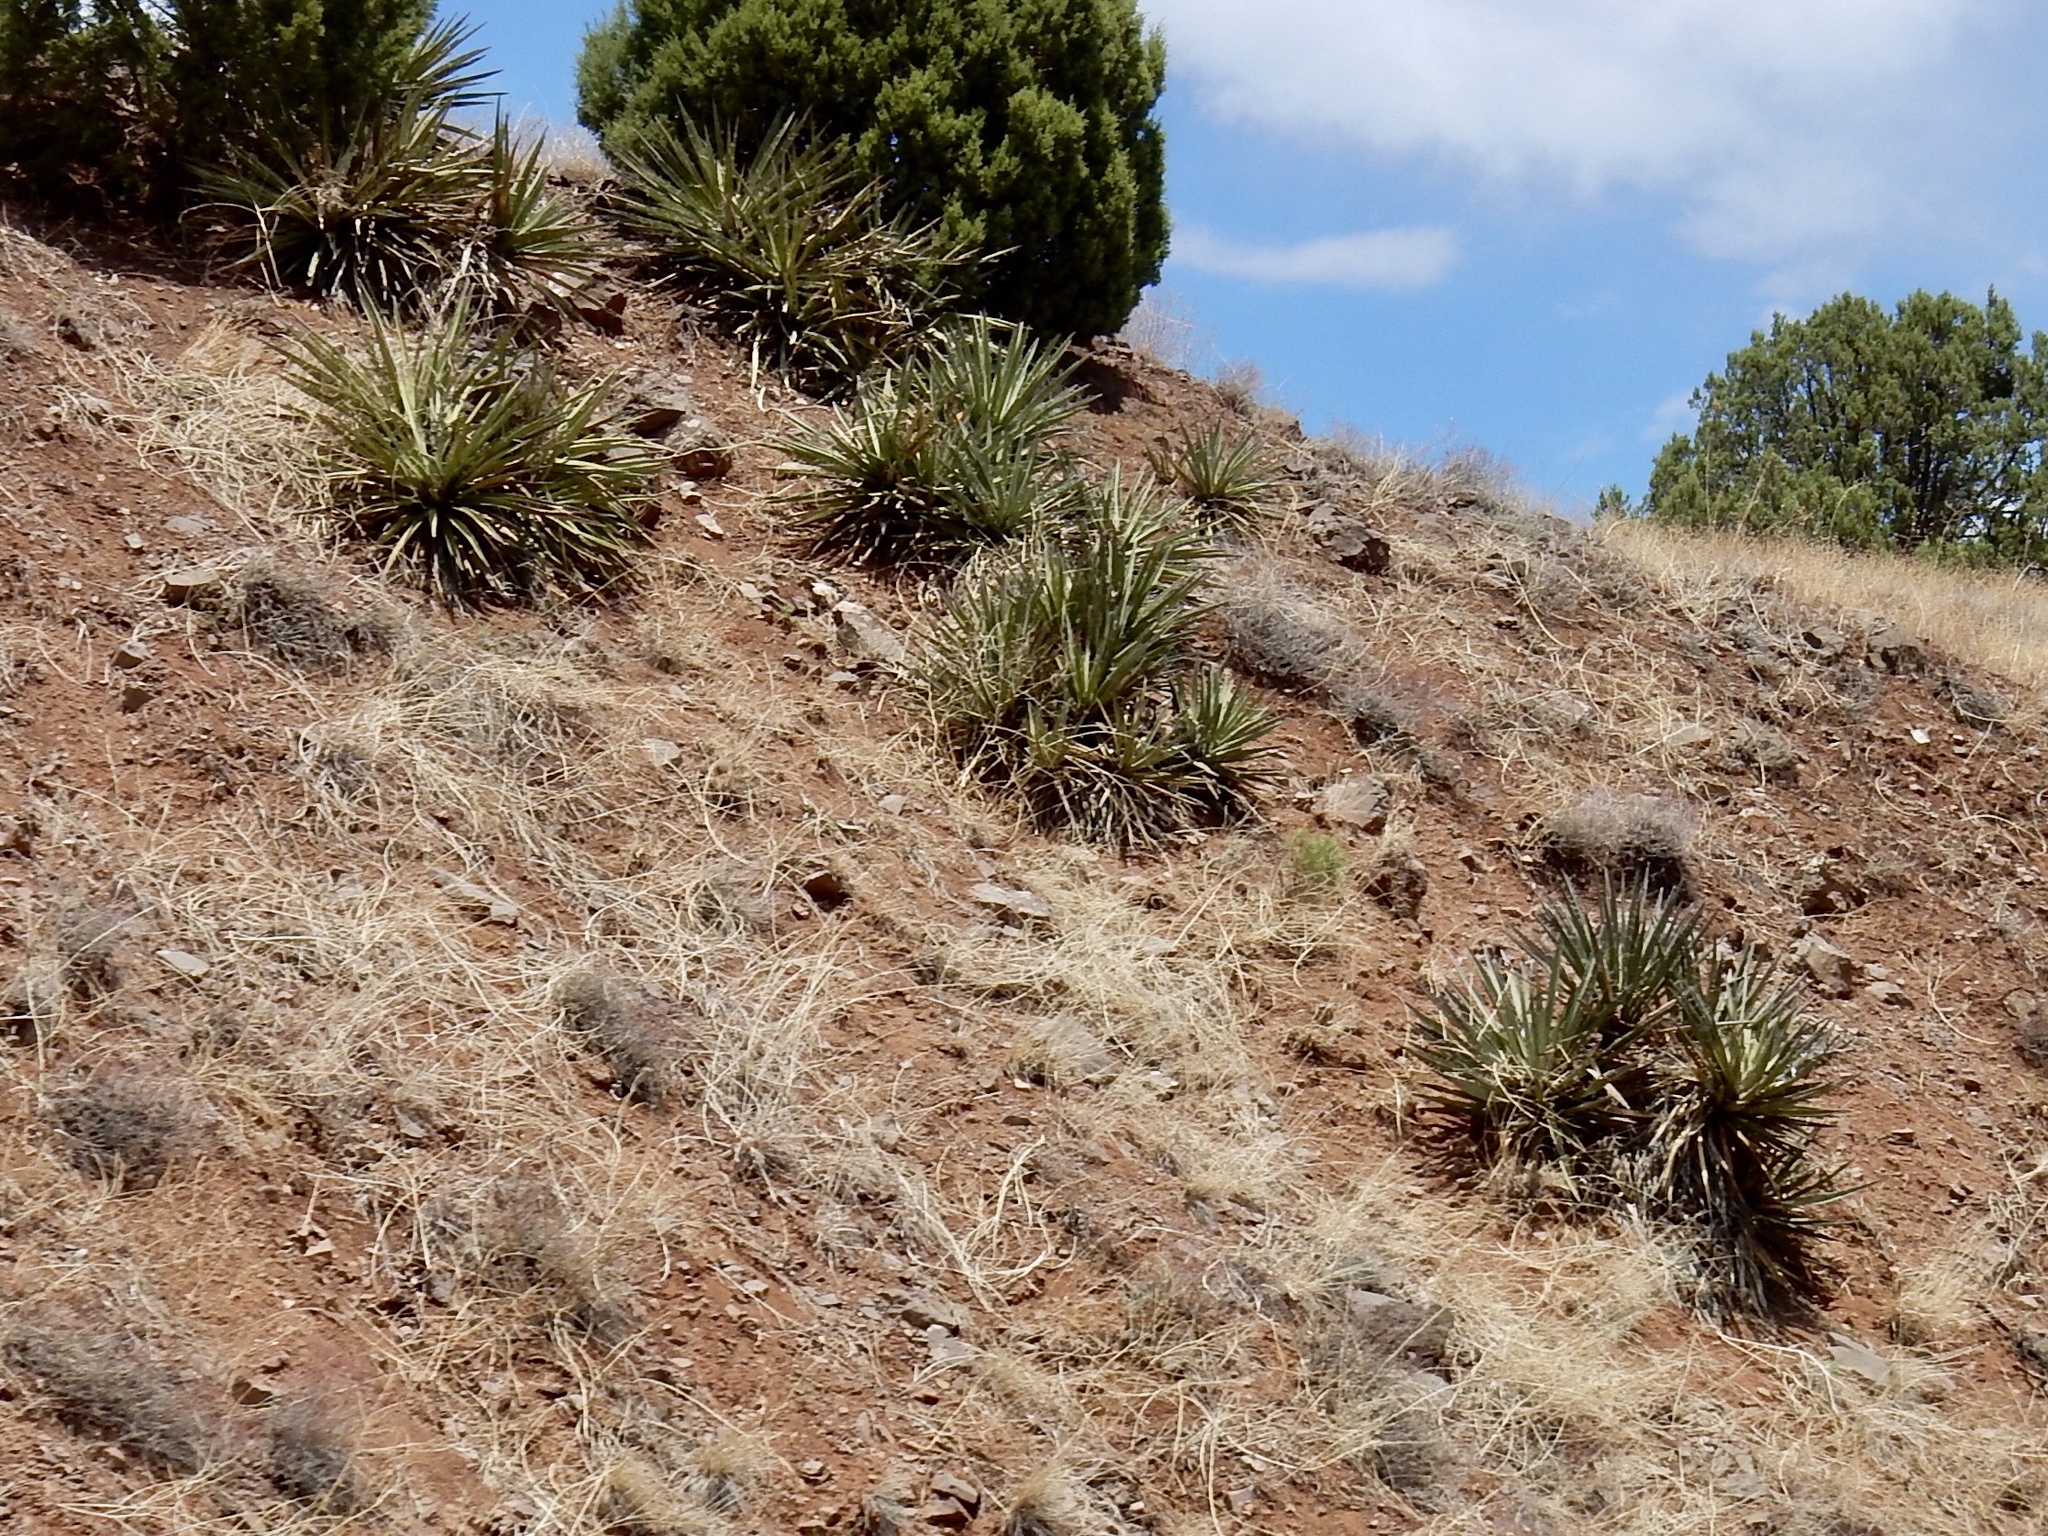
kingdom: Plantae
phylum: Tracheophyta
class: Liliopsida
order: Asparagales
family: Asparagaceae
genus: Yucca
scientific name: Yucca baccata
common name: Banana yucca
